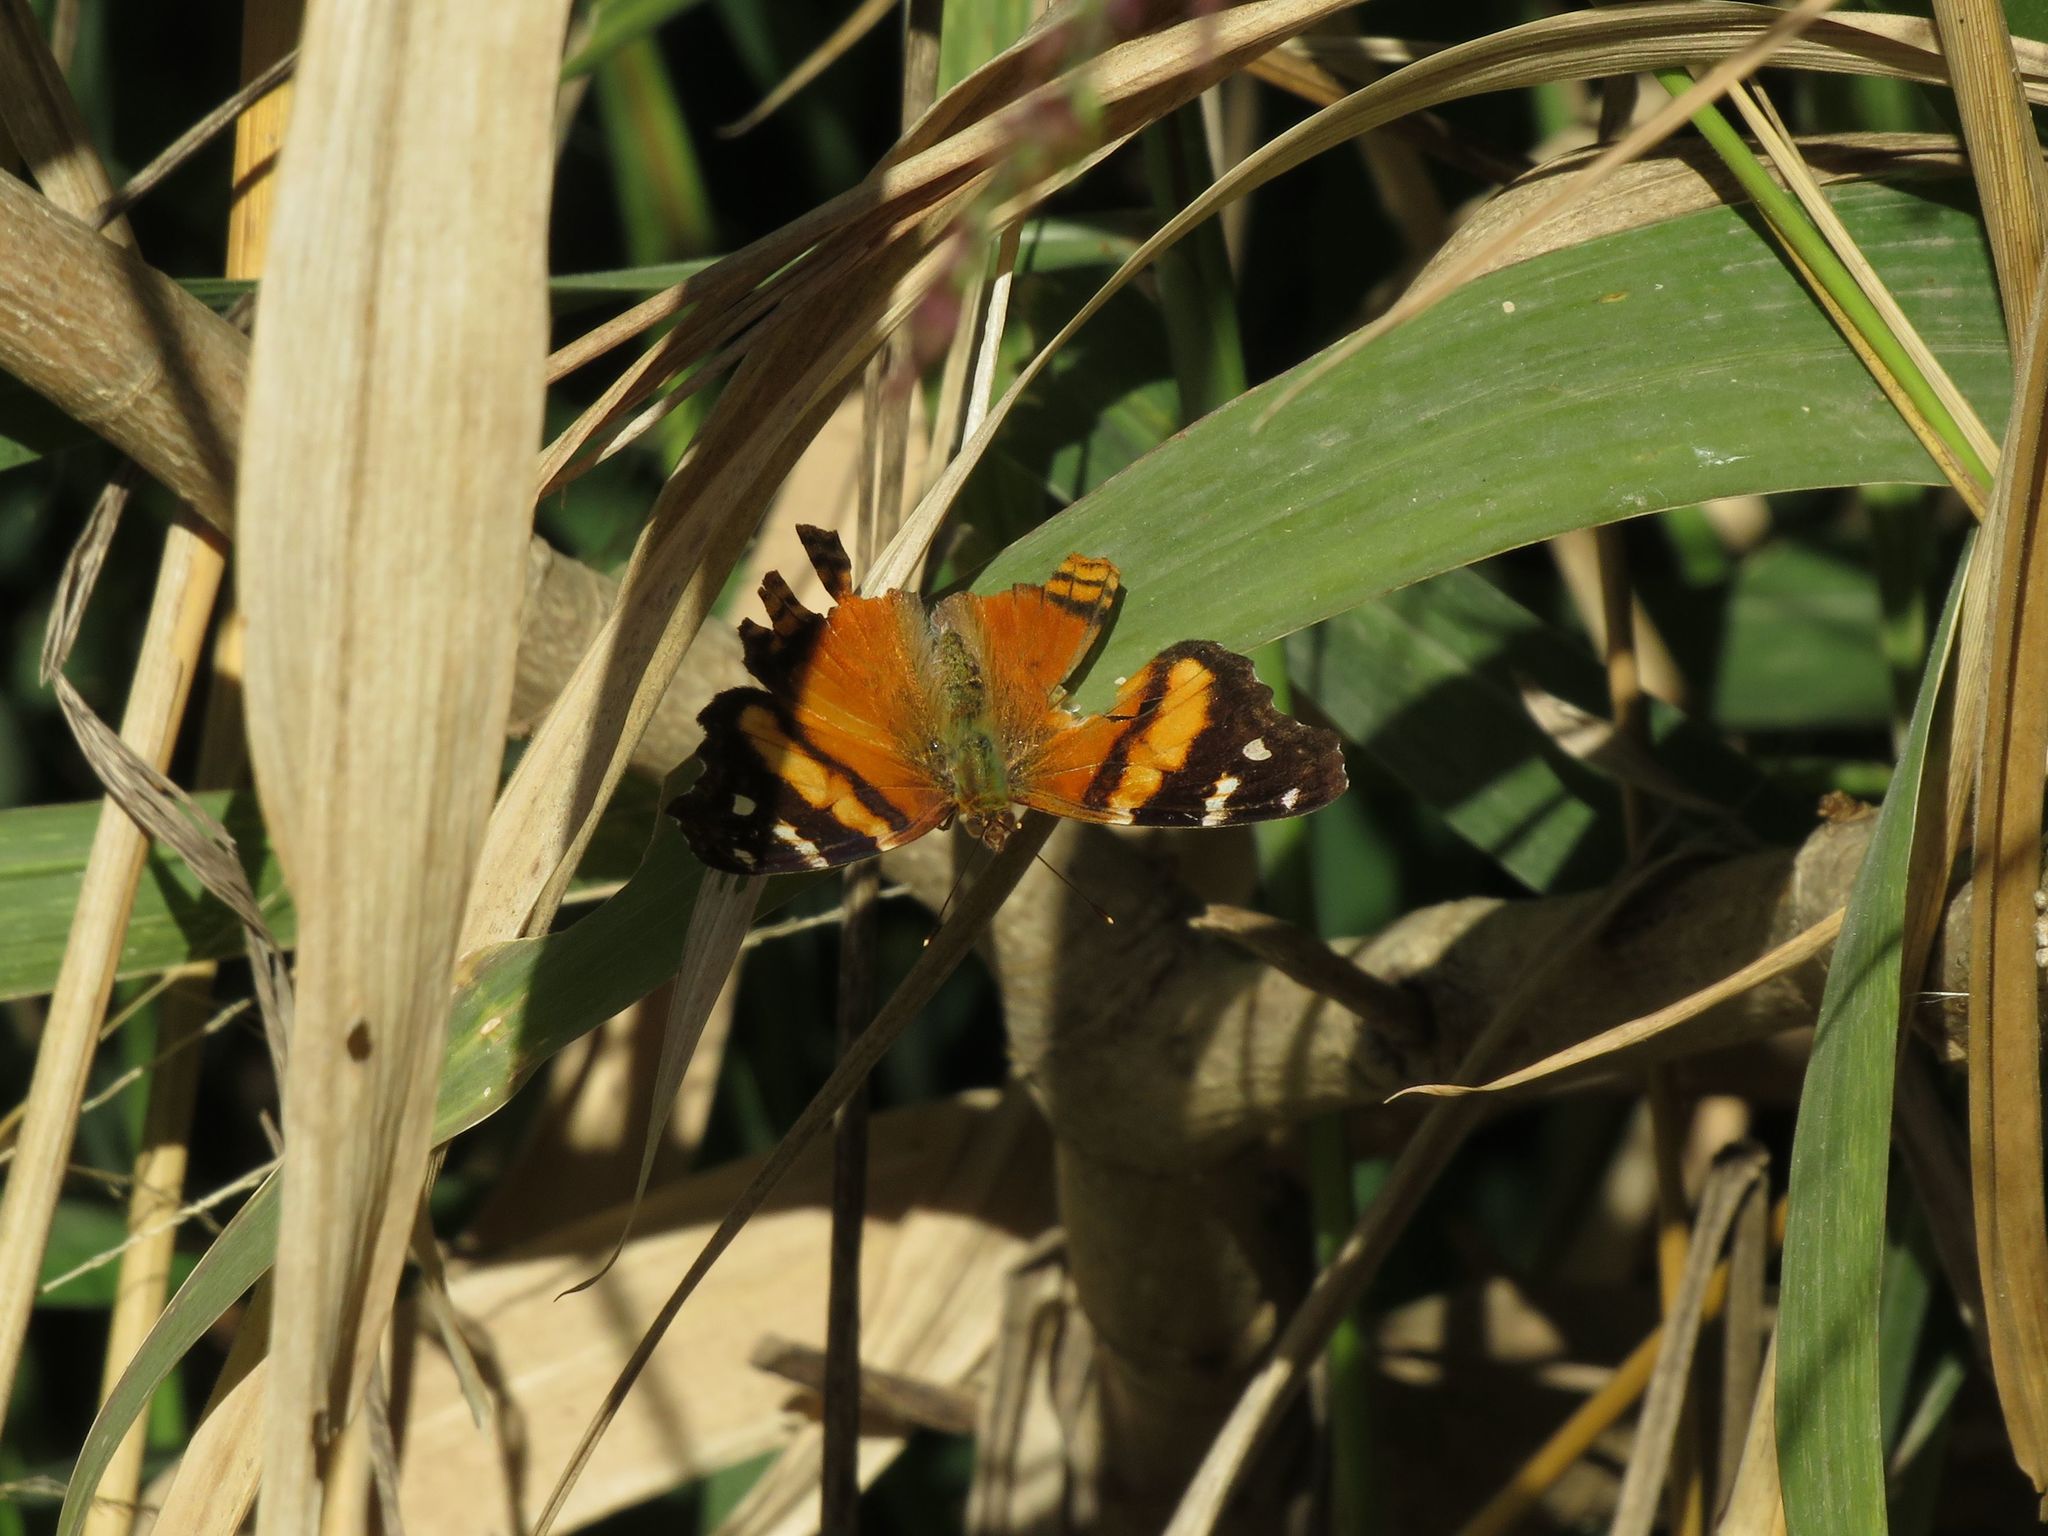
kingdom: Animalia
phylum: Arthropoda
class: Insecta
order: Lepidoptera
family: Nymphalidae
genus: Hypanartia
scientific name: Hypanartia bella
